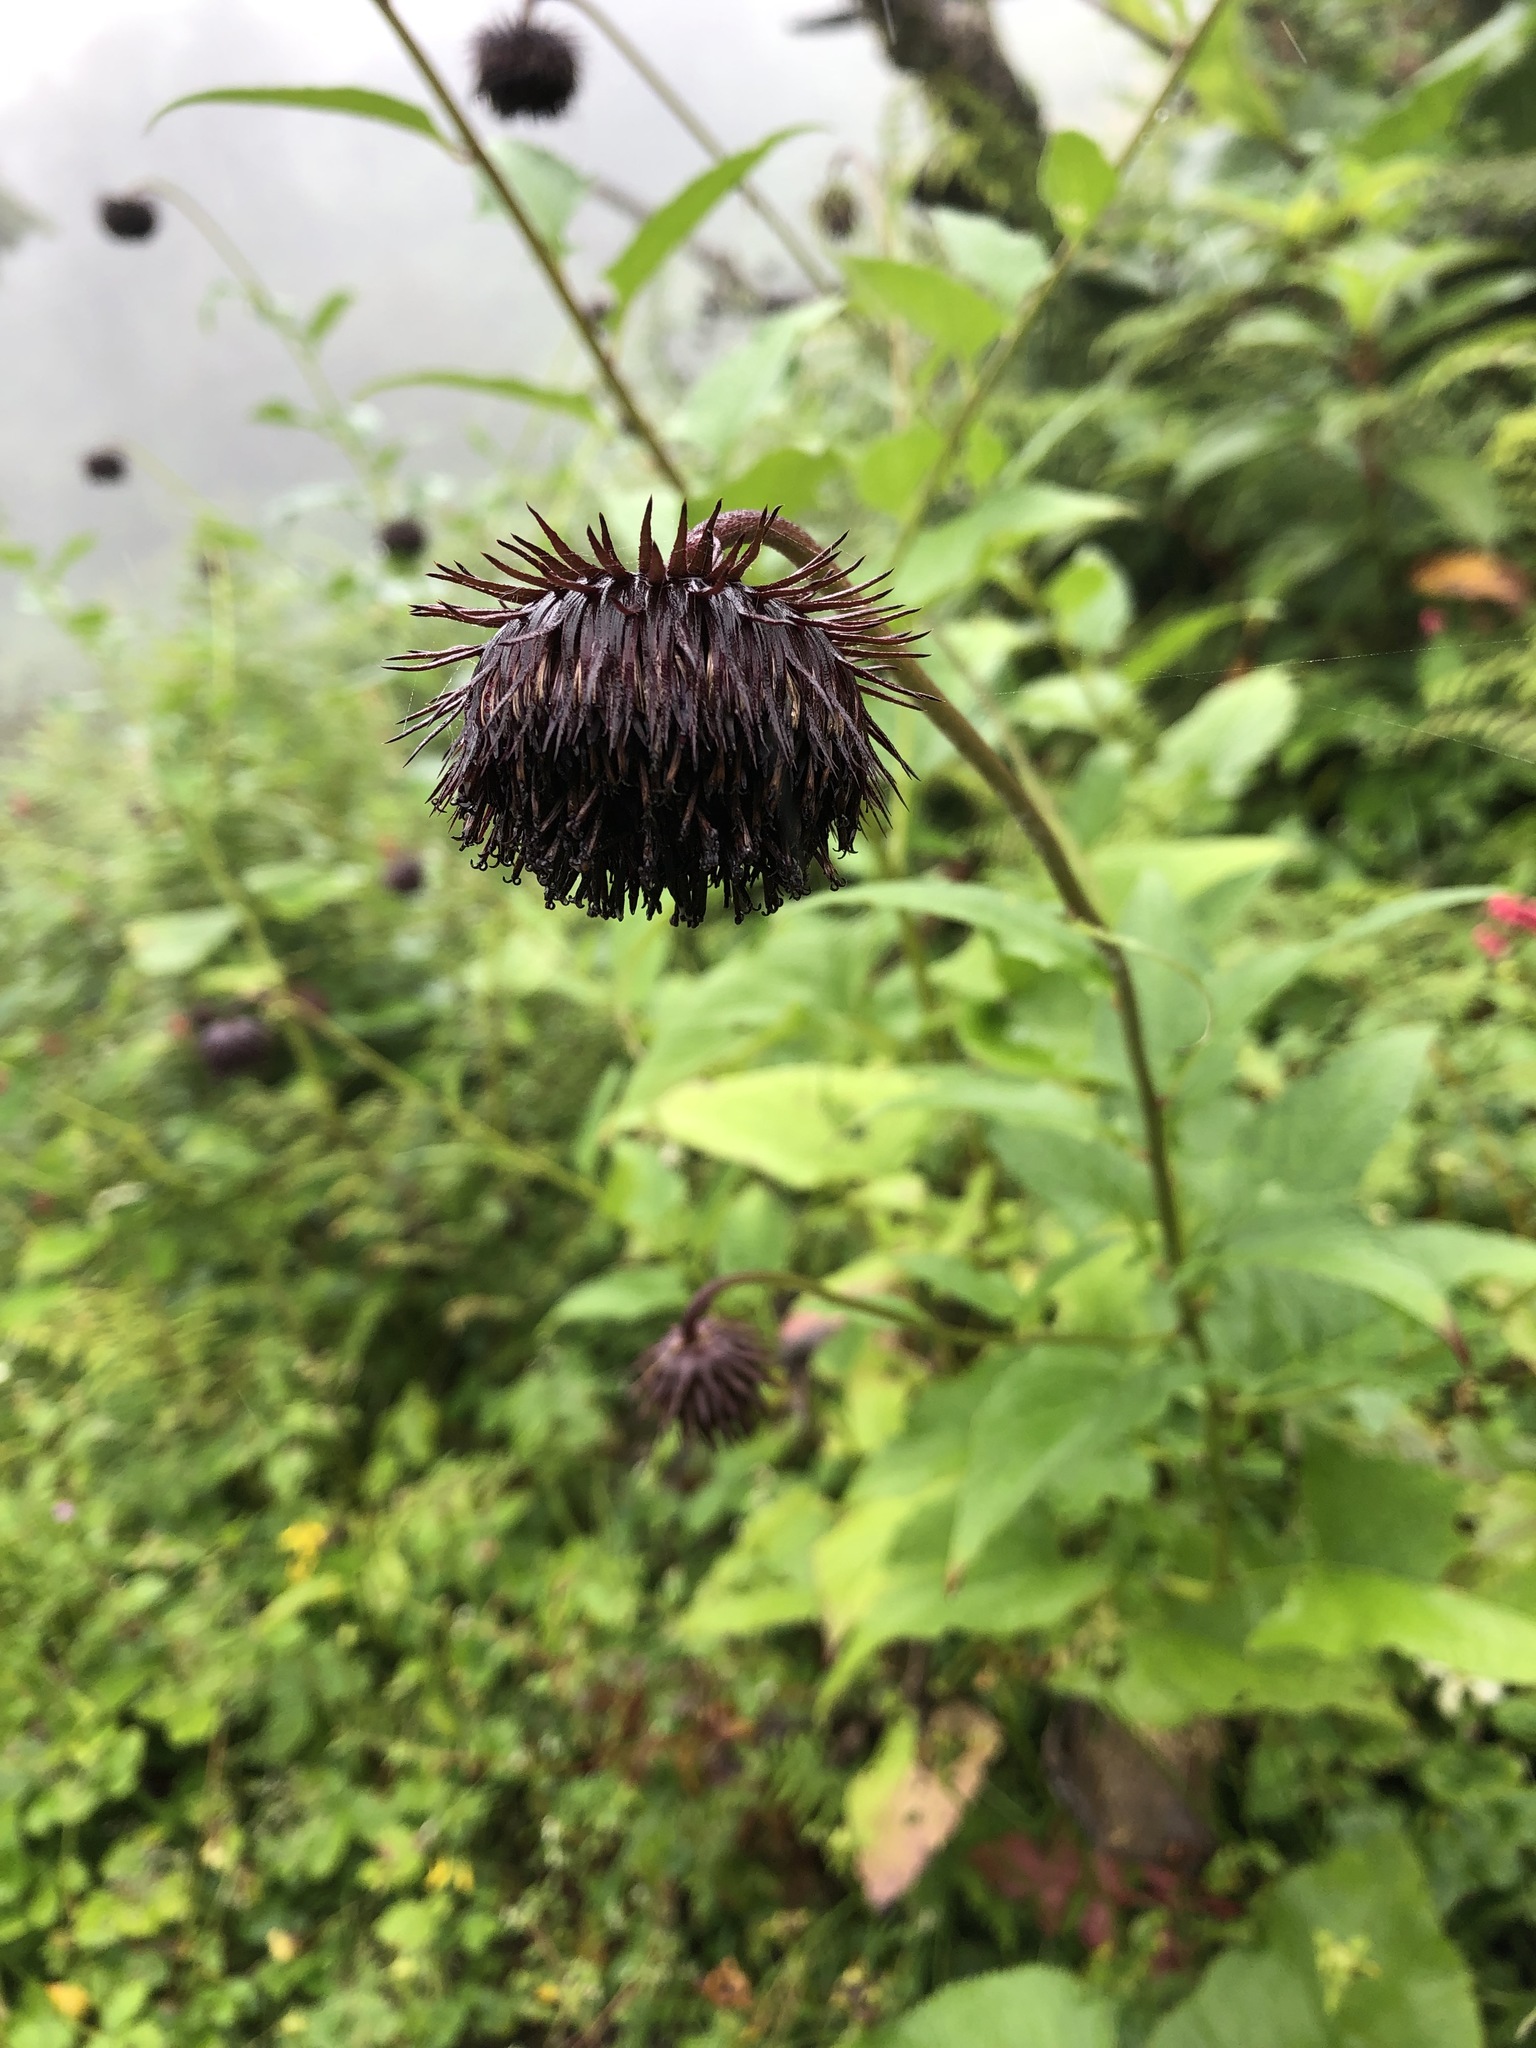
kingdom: Plantae
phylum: Tracheophyta
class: Magnoliopsida
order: Asterales
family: Asteraceae
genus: Jurinea
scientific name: Jurinea auriculata
